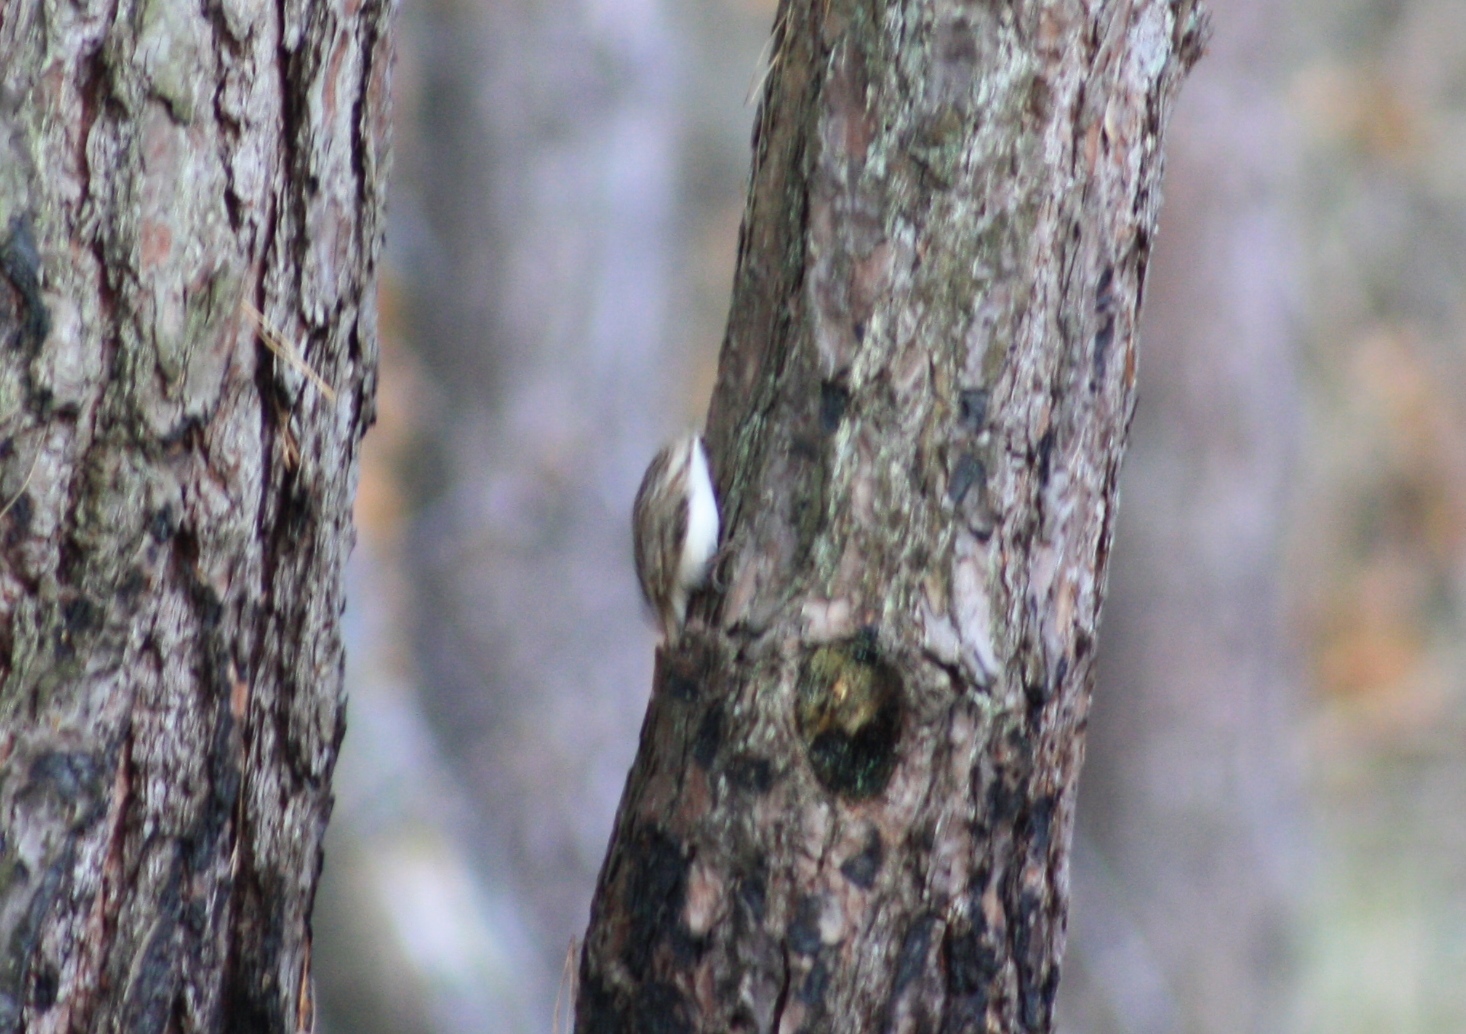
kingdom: Animalia
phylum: Chordata
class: Aves
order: Passeriformes
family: Certhiidae
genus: Certhia
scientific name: Certhia familiaris
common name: Eurasian treecreeper
